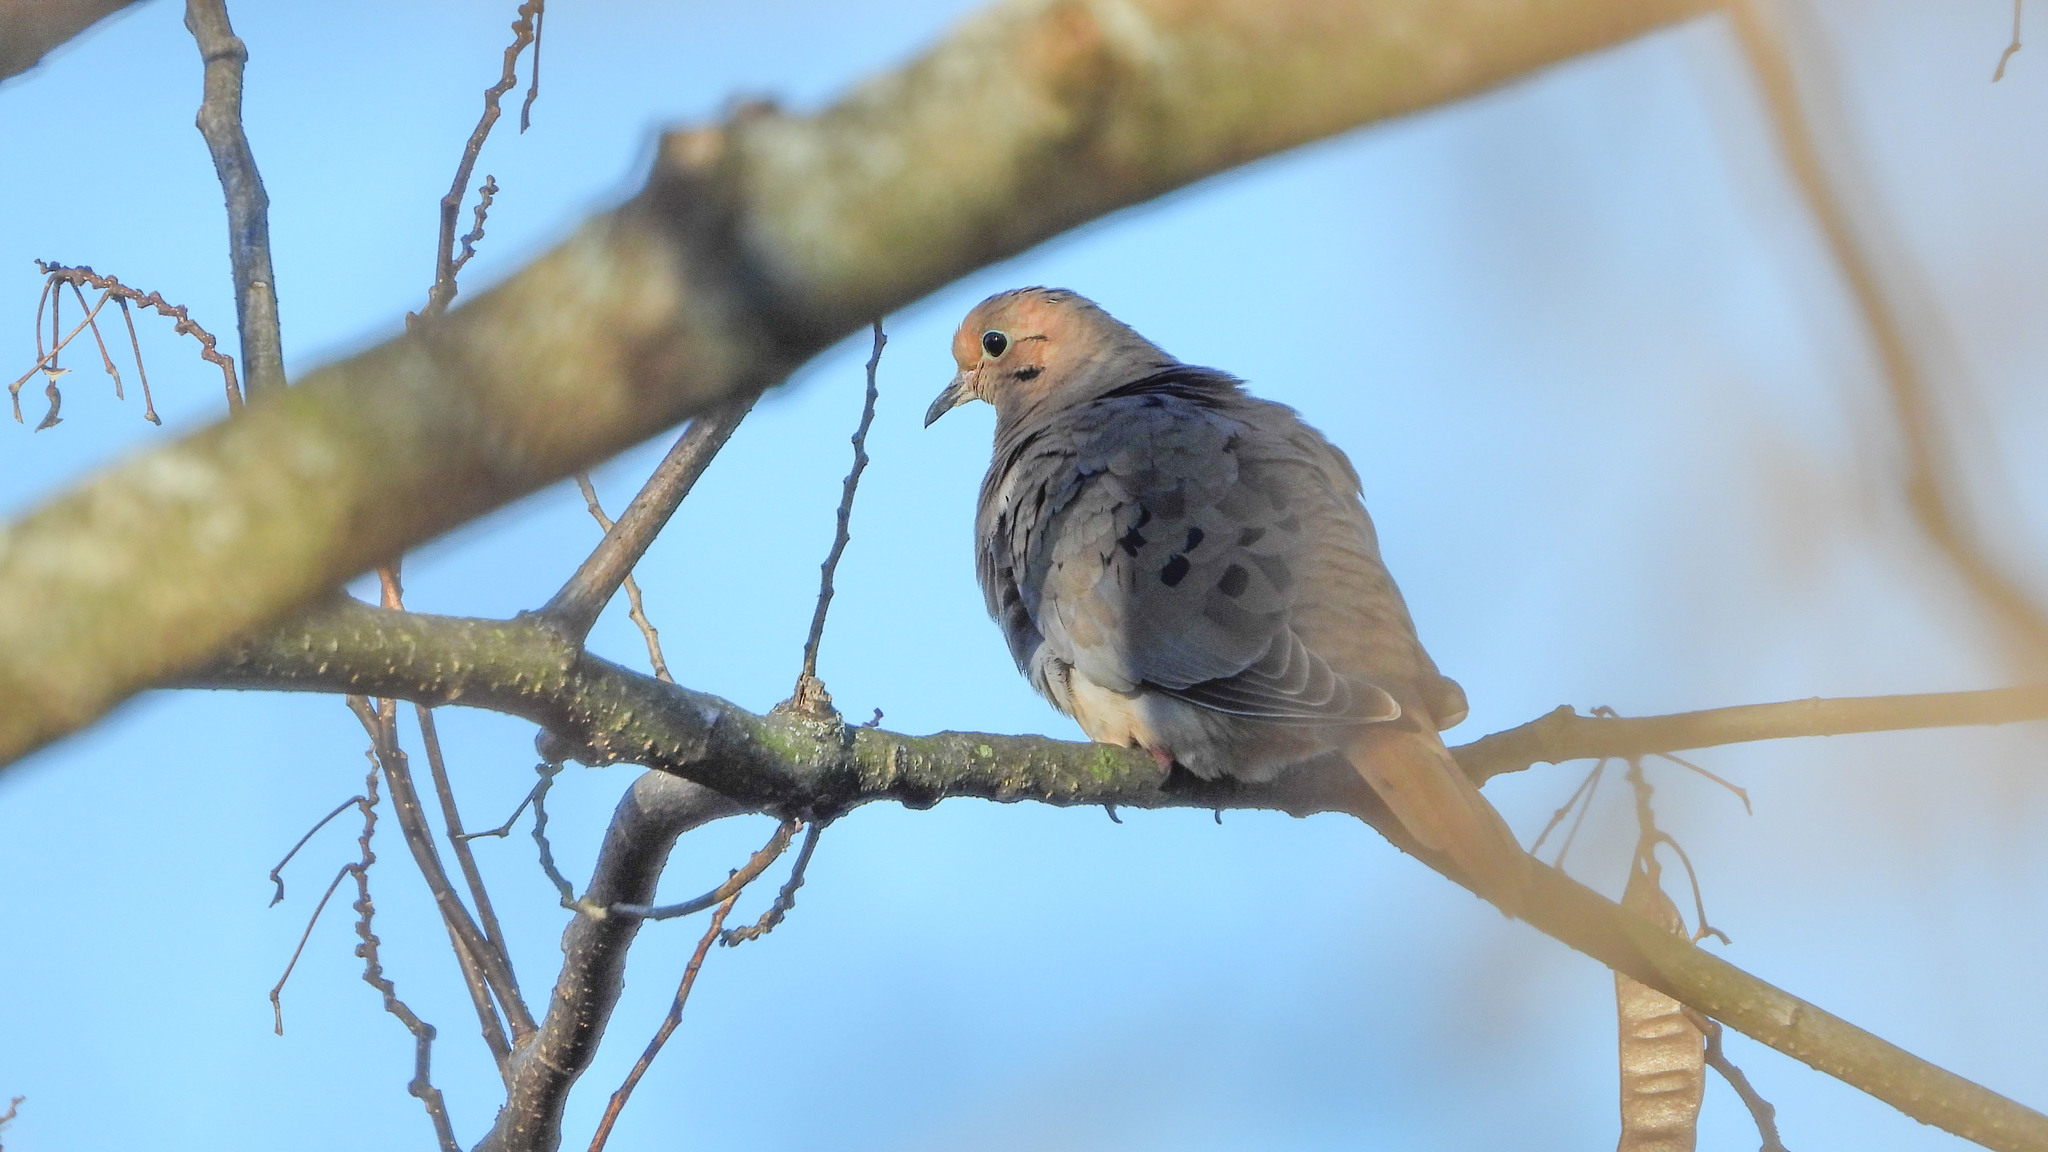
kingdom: Animalia
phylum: Chordata
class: Aves
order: Columbiformes
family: Columbidae
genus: Zenaida
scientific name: Zenaida macroura
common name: Mourning dove
